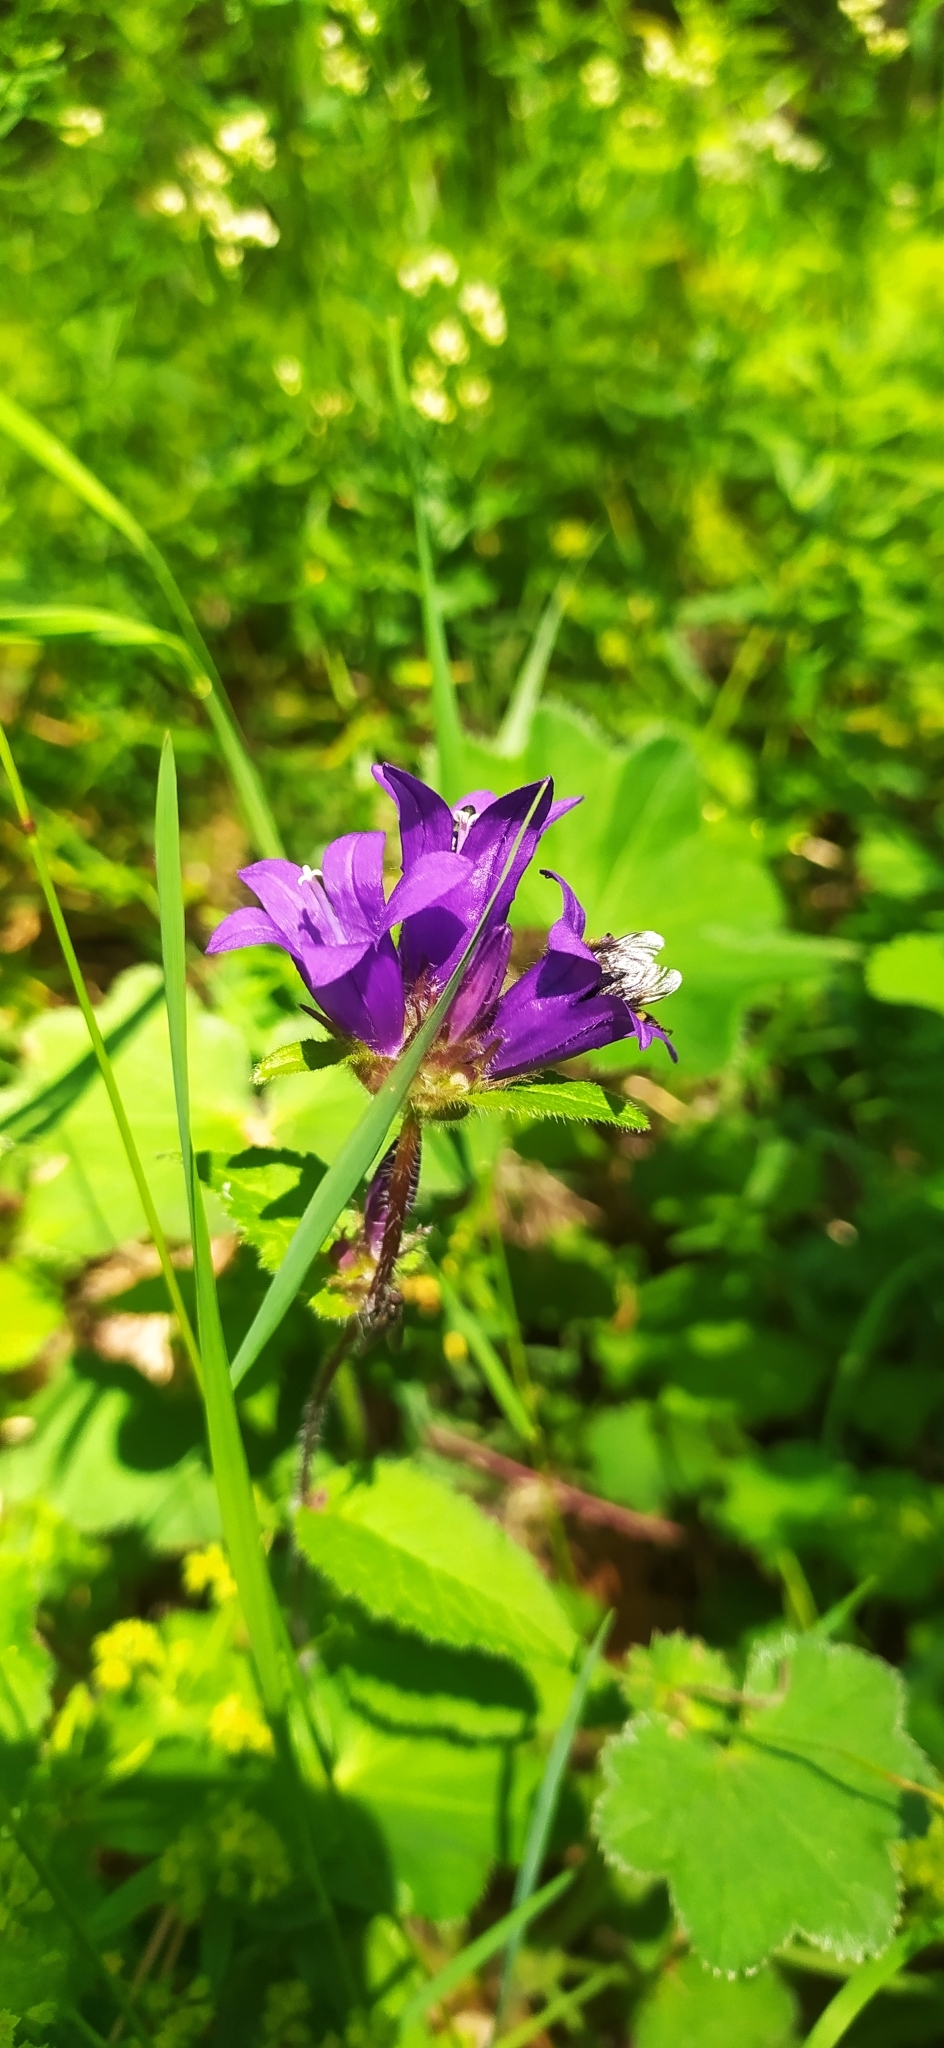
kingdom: Plantae
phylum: Tracheophyta
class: Magnoliopsida
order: Asterales
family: Campanulaceae
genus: Campanula
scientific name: Campanula glomerata
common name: Clustered bellflower
